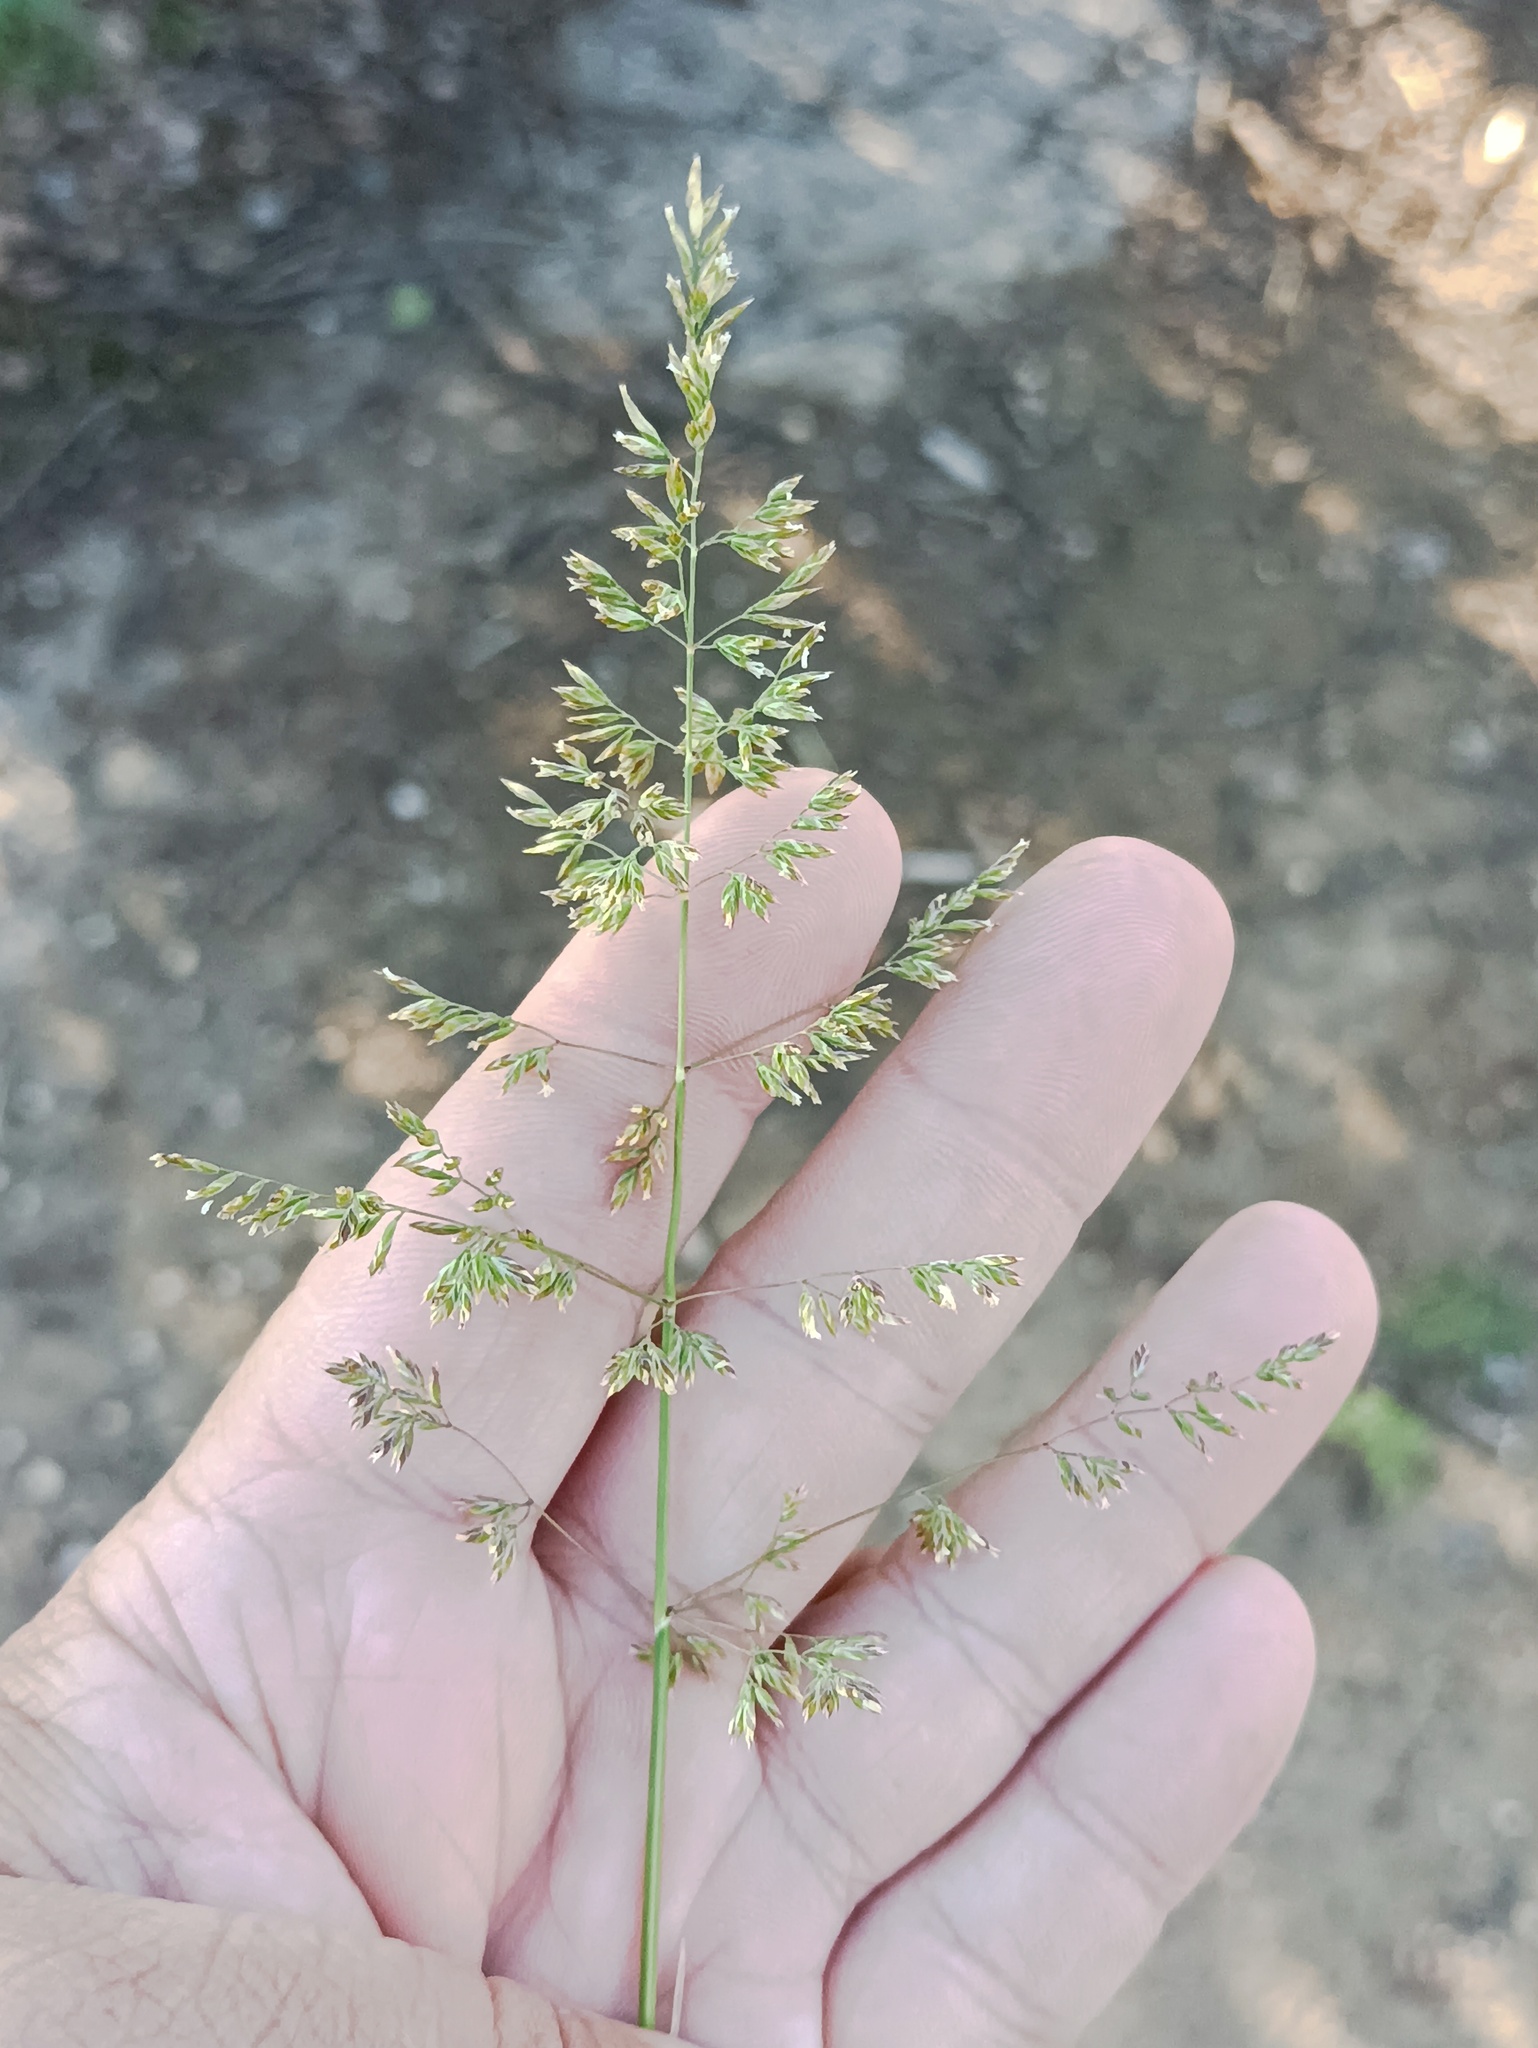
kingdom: Plantae
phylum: Tracheophyta
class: Liliopsida
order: Poales
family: Poaceae
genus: Poa
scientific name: Poa pratensis
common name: Kentucky bluegrass
